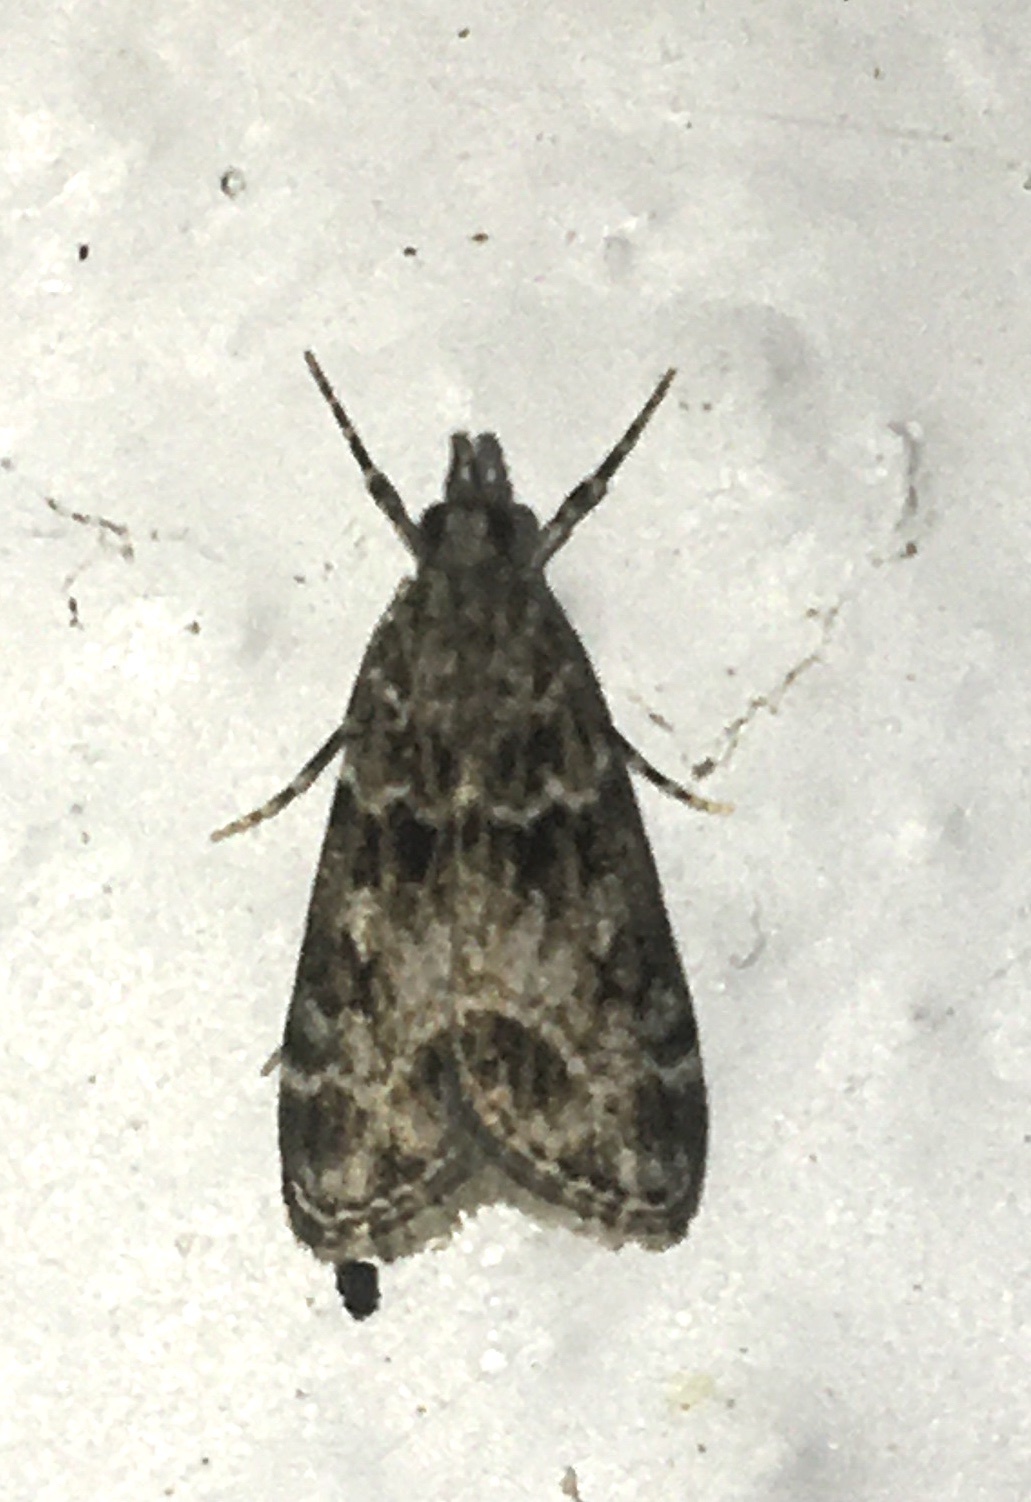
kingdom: Animalia
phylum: Arthropoda
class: Insecta
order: Lepidoptera
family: Crambidae
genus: Eudonia
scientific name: Eudonia mercurella
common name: Small grey
